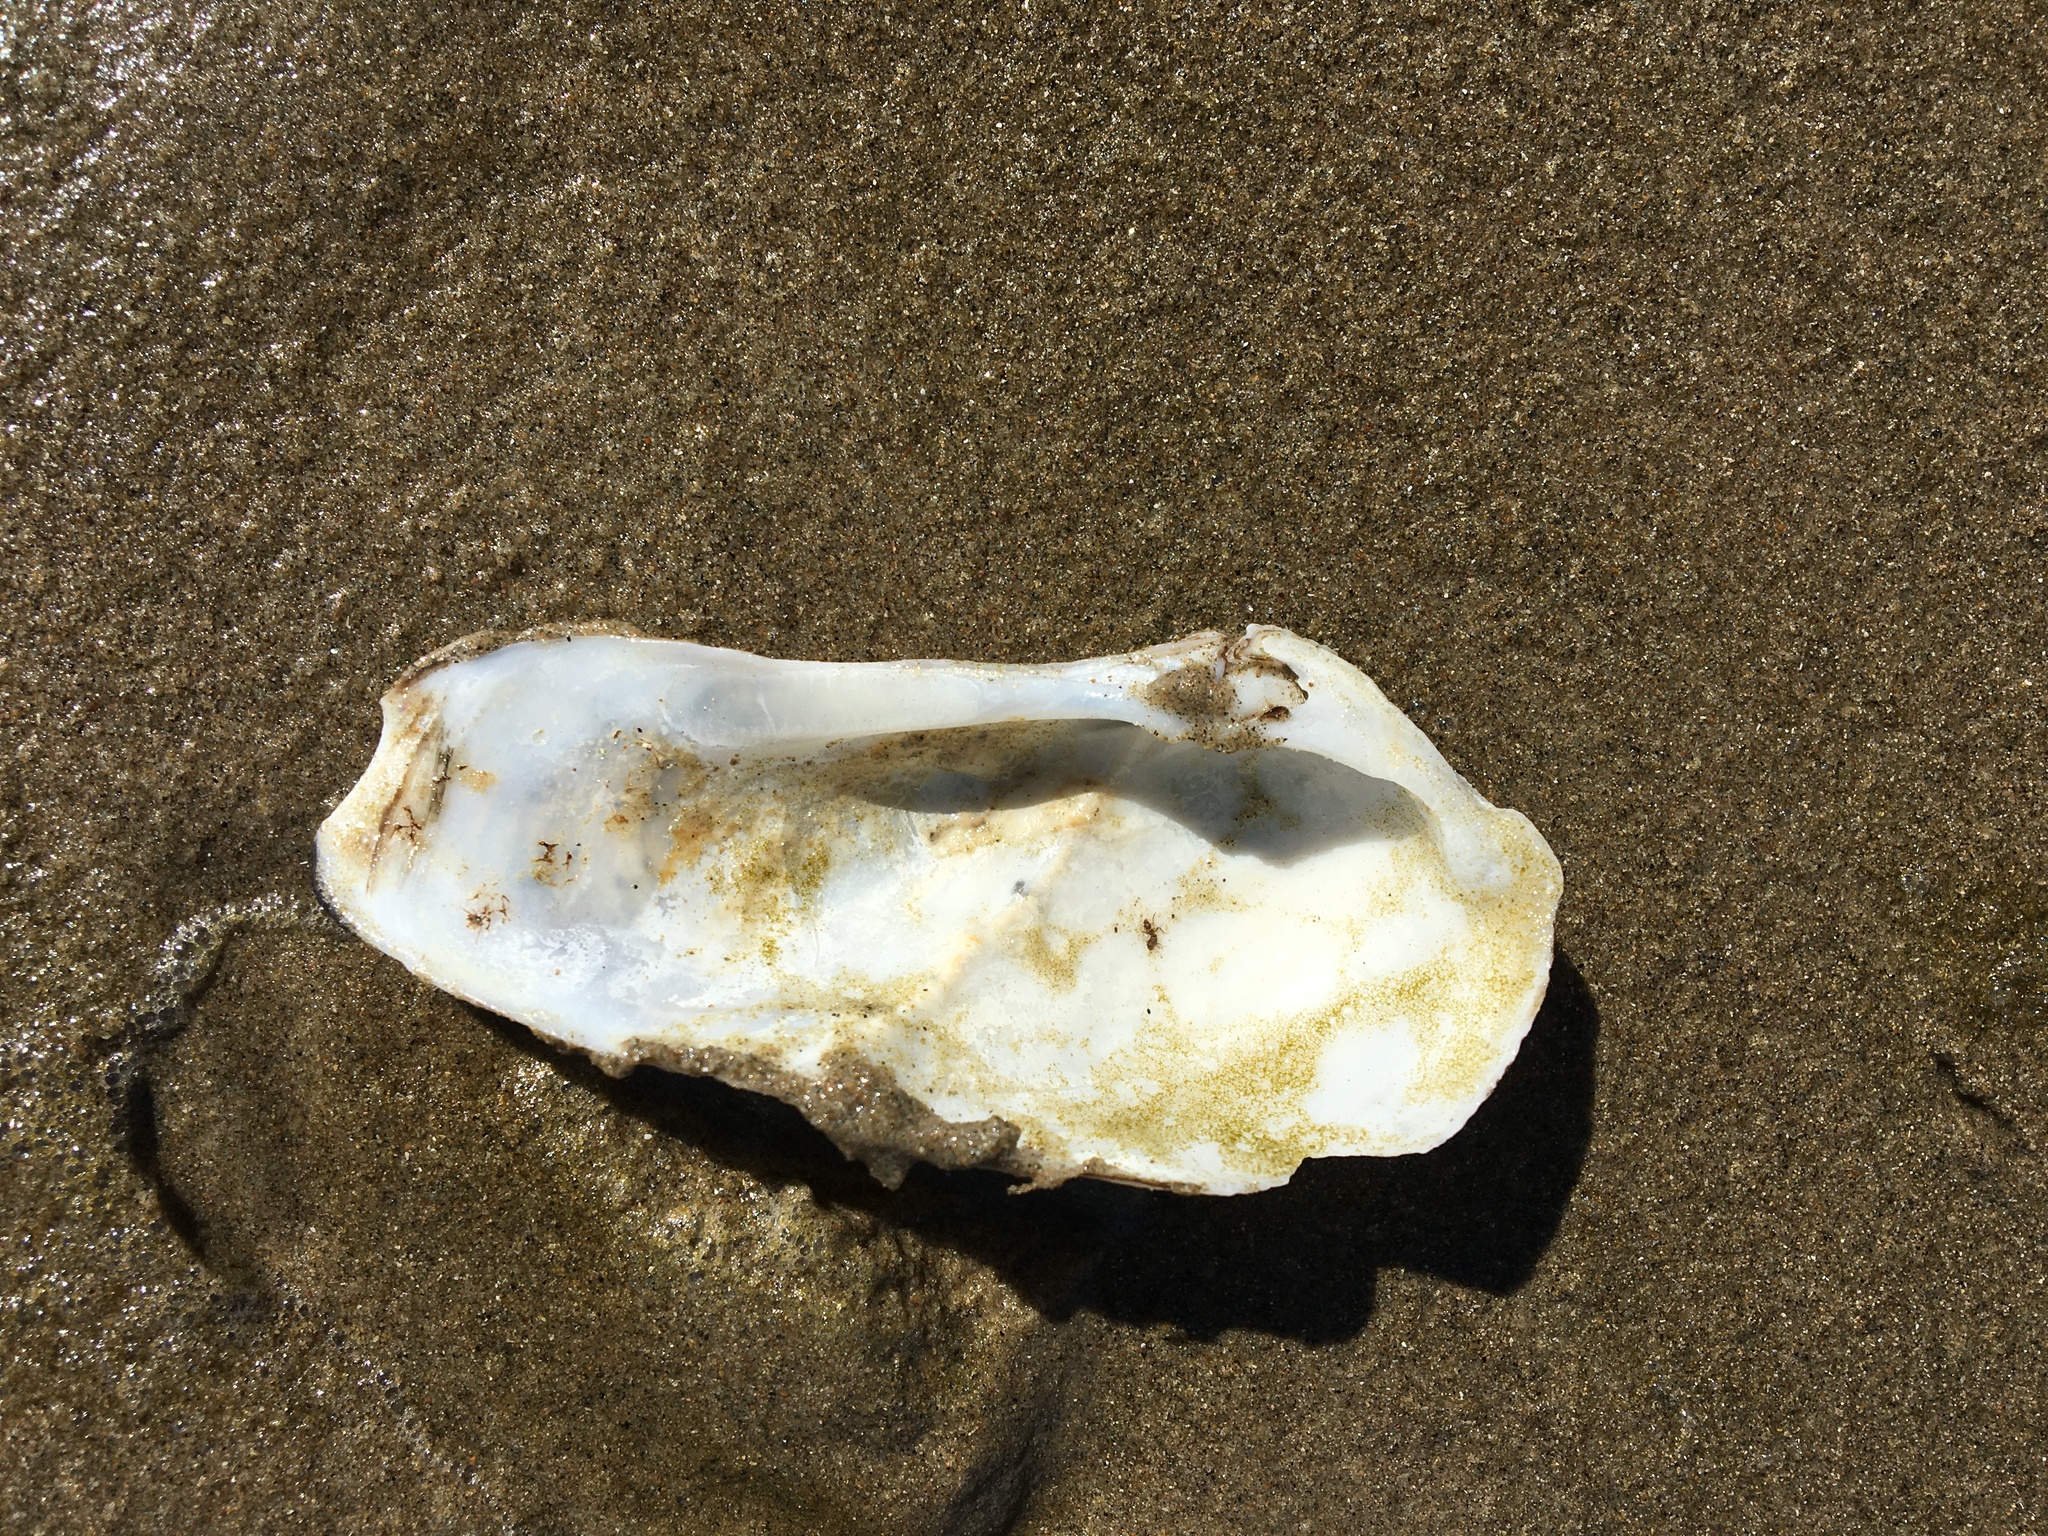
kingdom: Animalia
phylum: Mollusca
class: Bivalvia
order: Myida
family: Pholadidae
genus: Parapholas
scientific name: Parapholas californica
